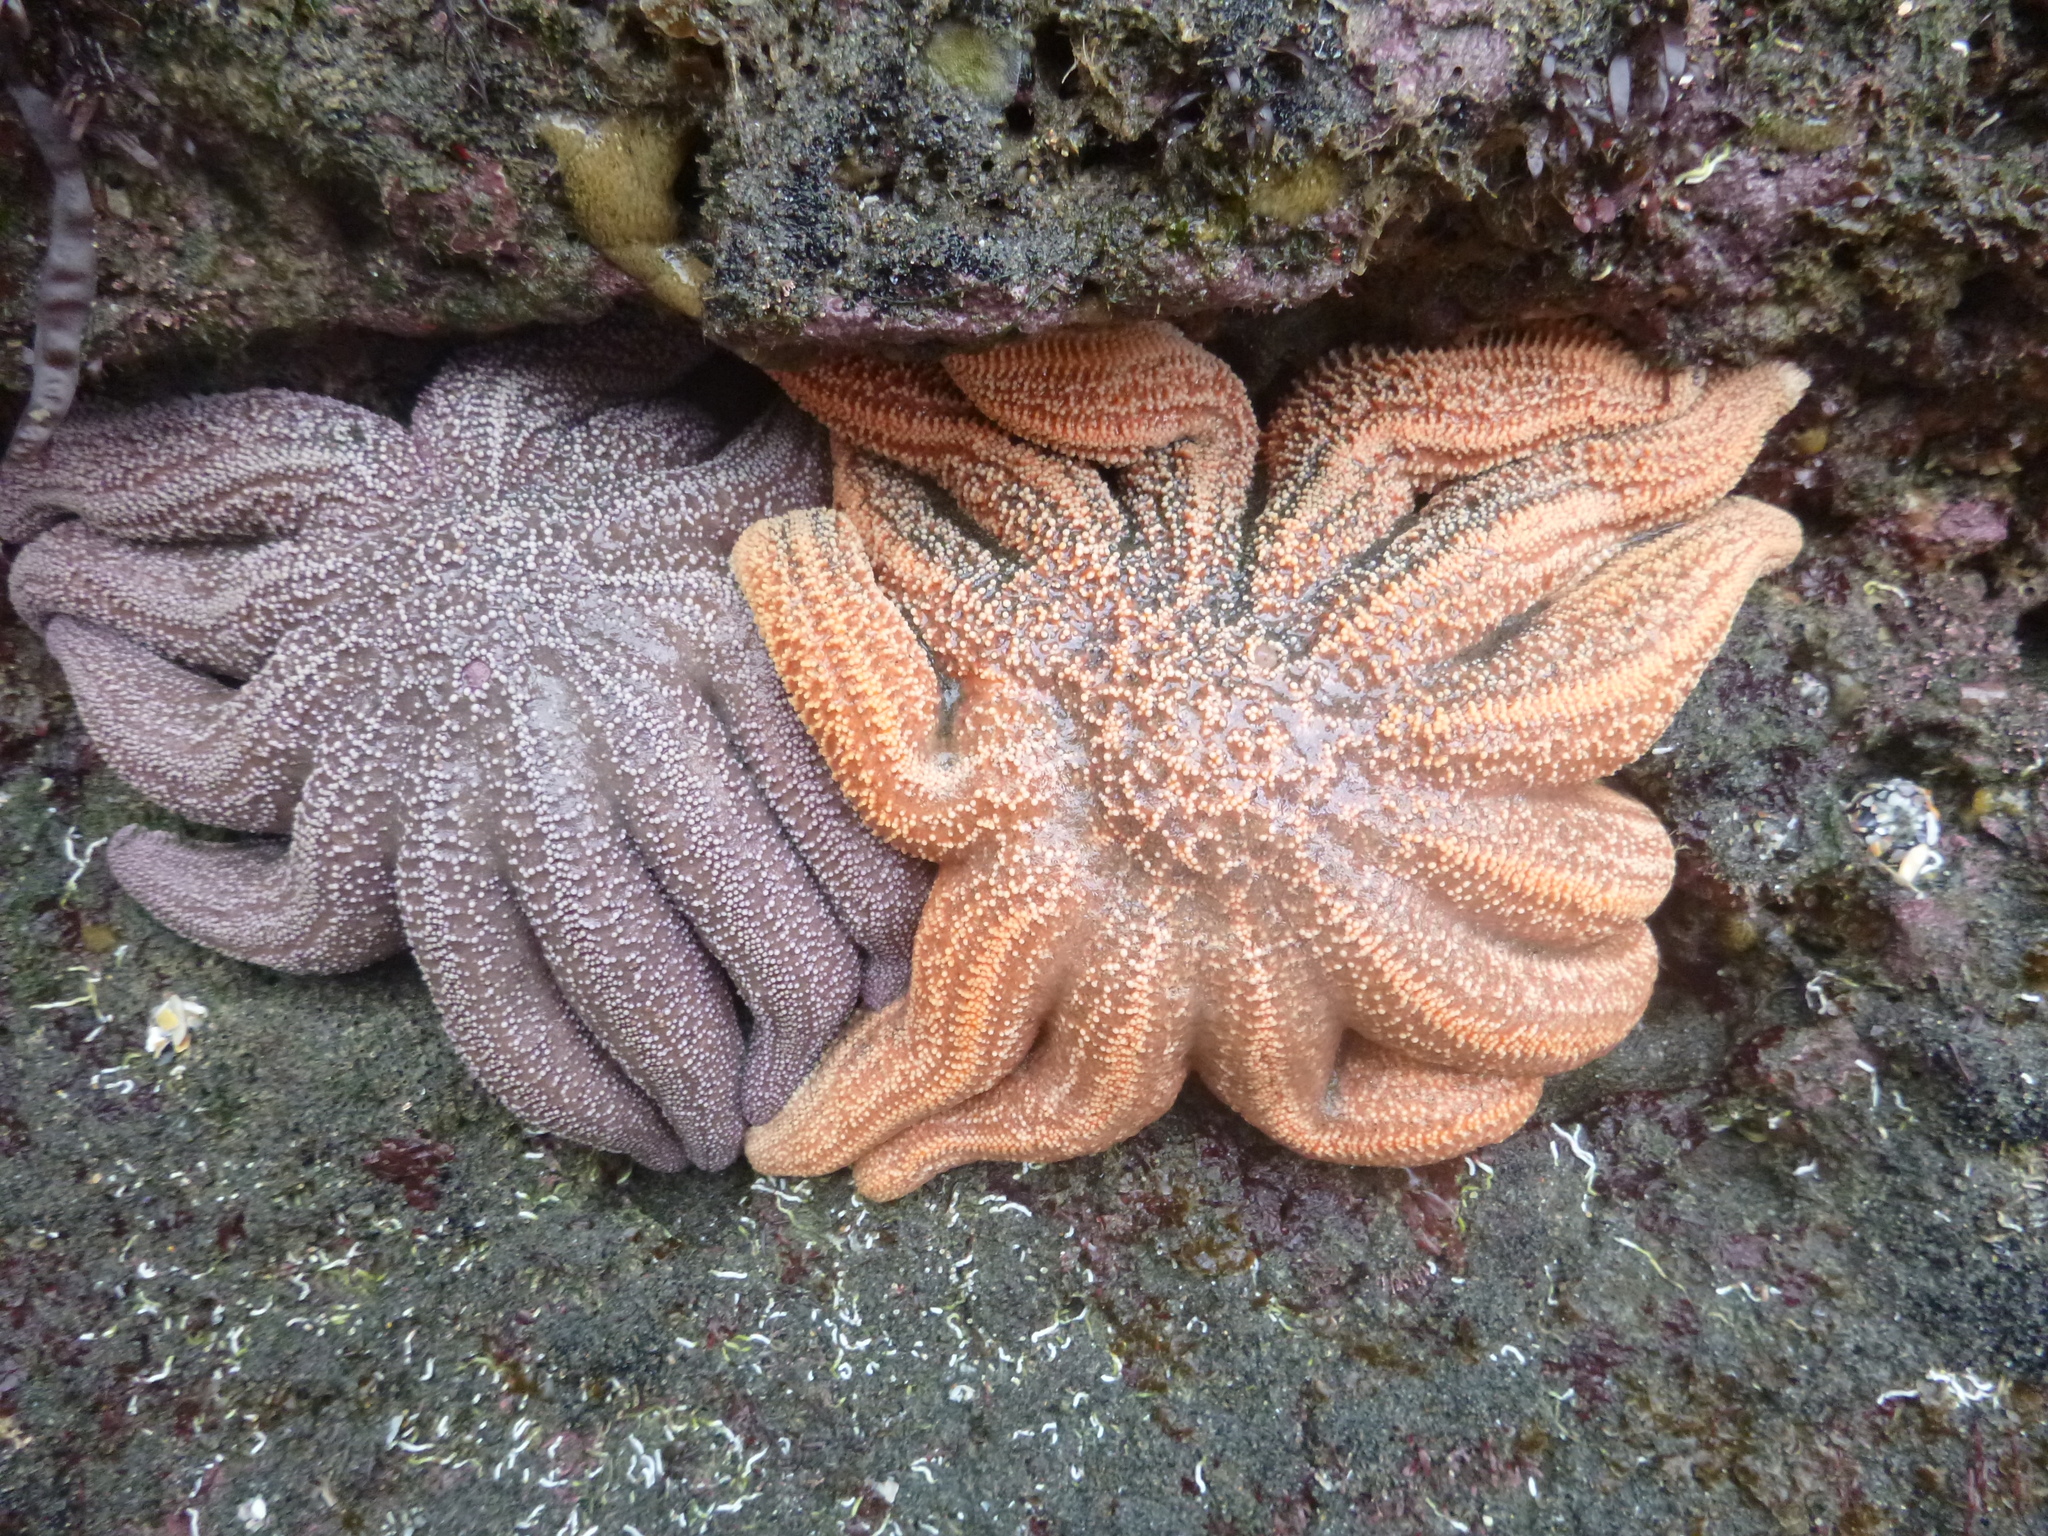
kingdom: Animalia
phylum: Echinodermata
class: Asteroidea
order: Forcipulatida
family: Stichasteridae
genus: Stichaster
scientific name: Stichaster australis
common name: Reef starfish
